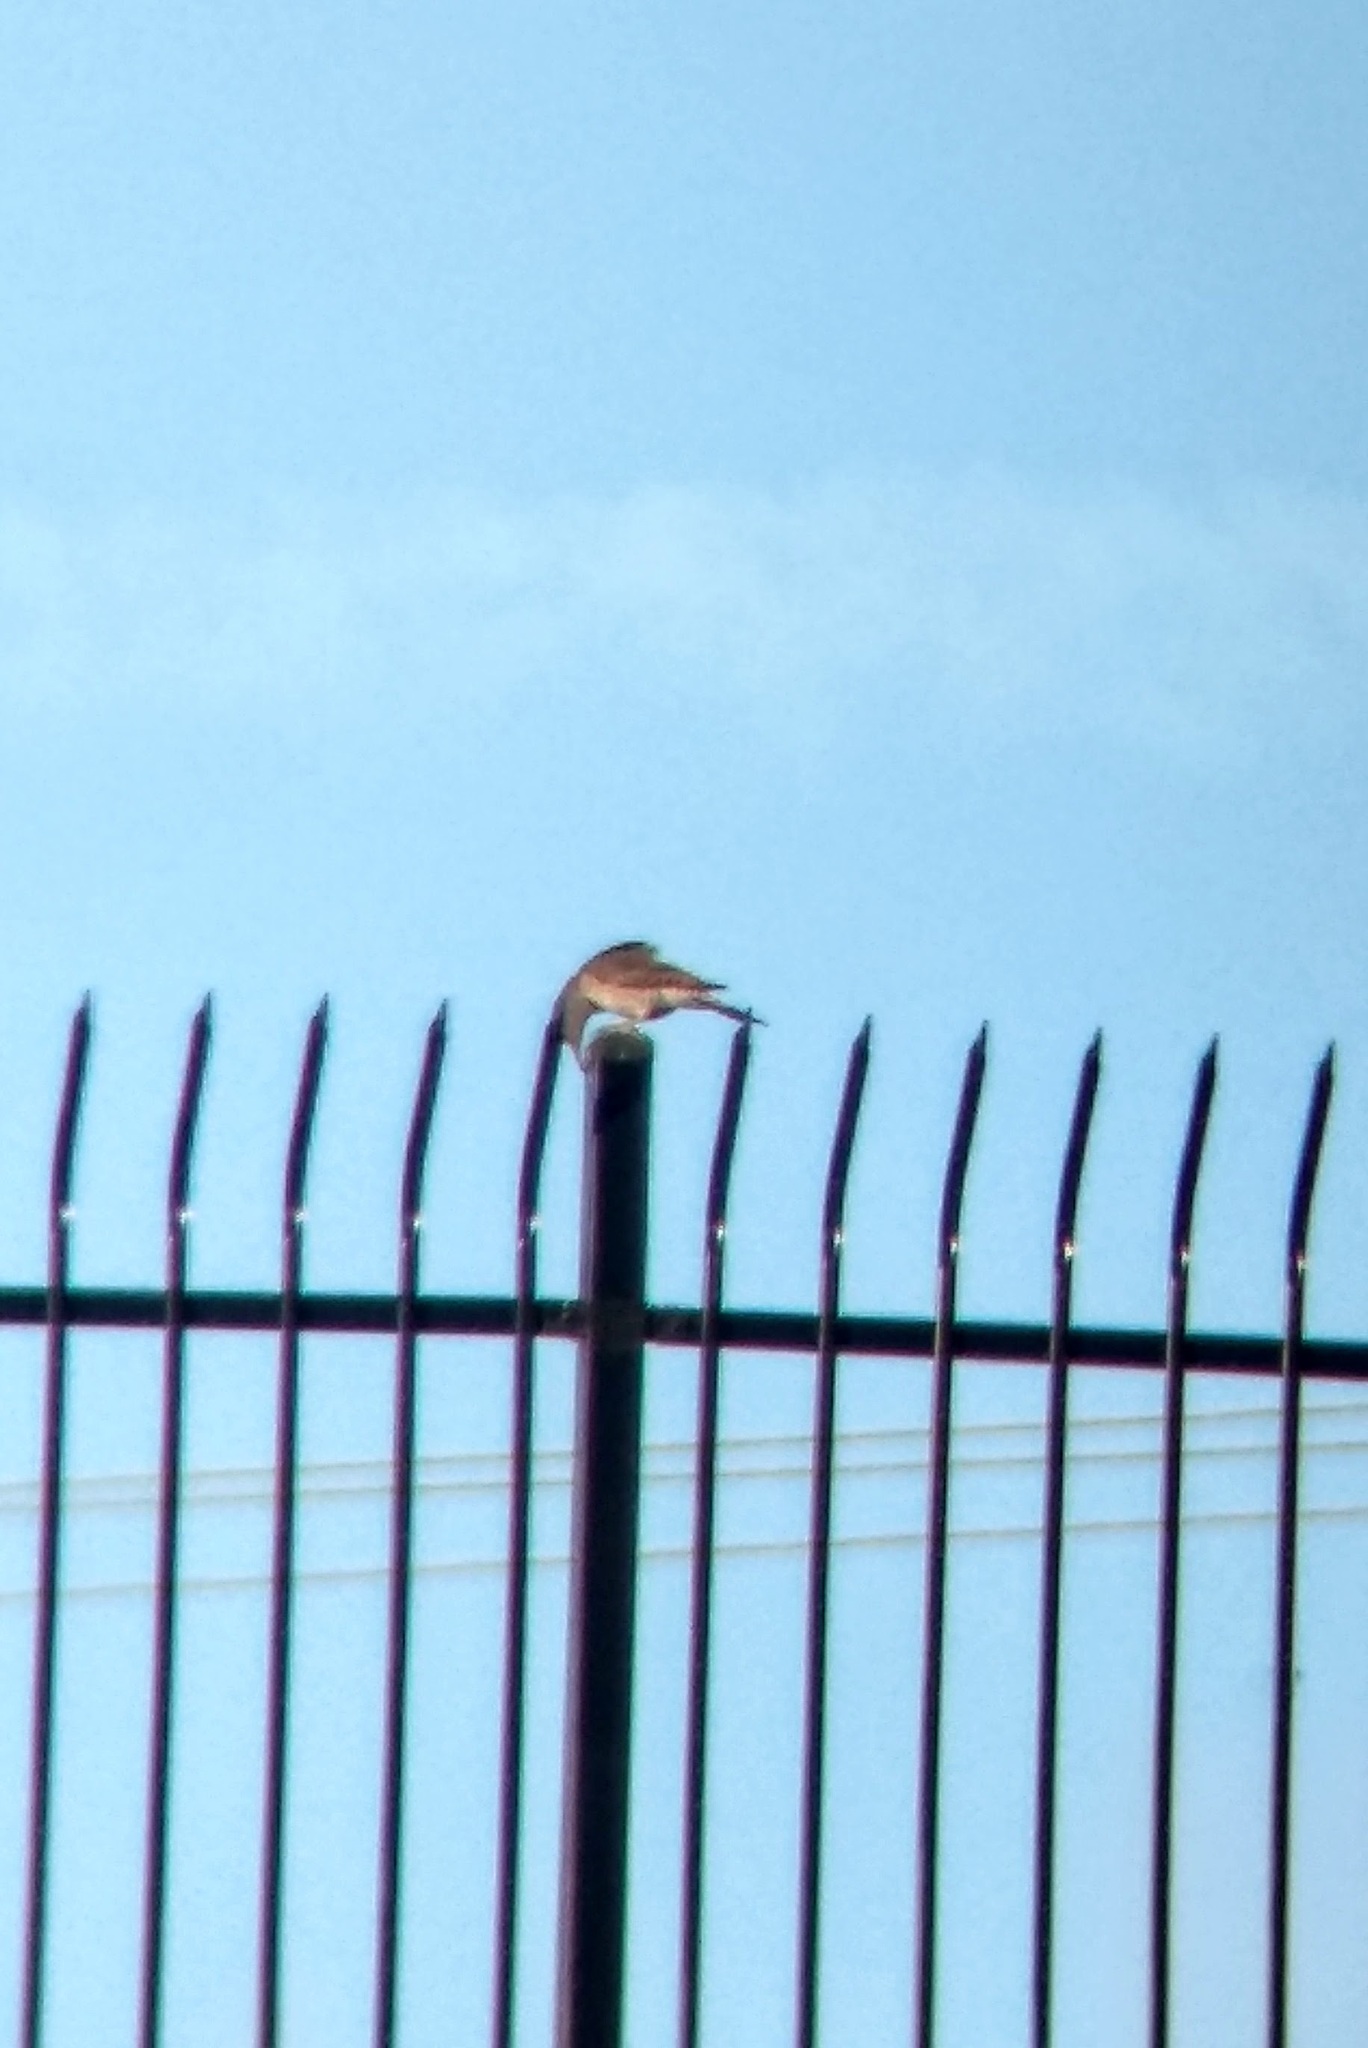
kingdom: Animalia
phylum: Chordata
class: Aves
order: Piciformes
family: Picidae
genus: Colaptes
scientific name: Colaptes auratus
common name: Northern flicker
